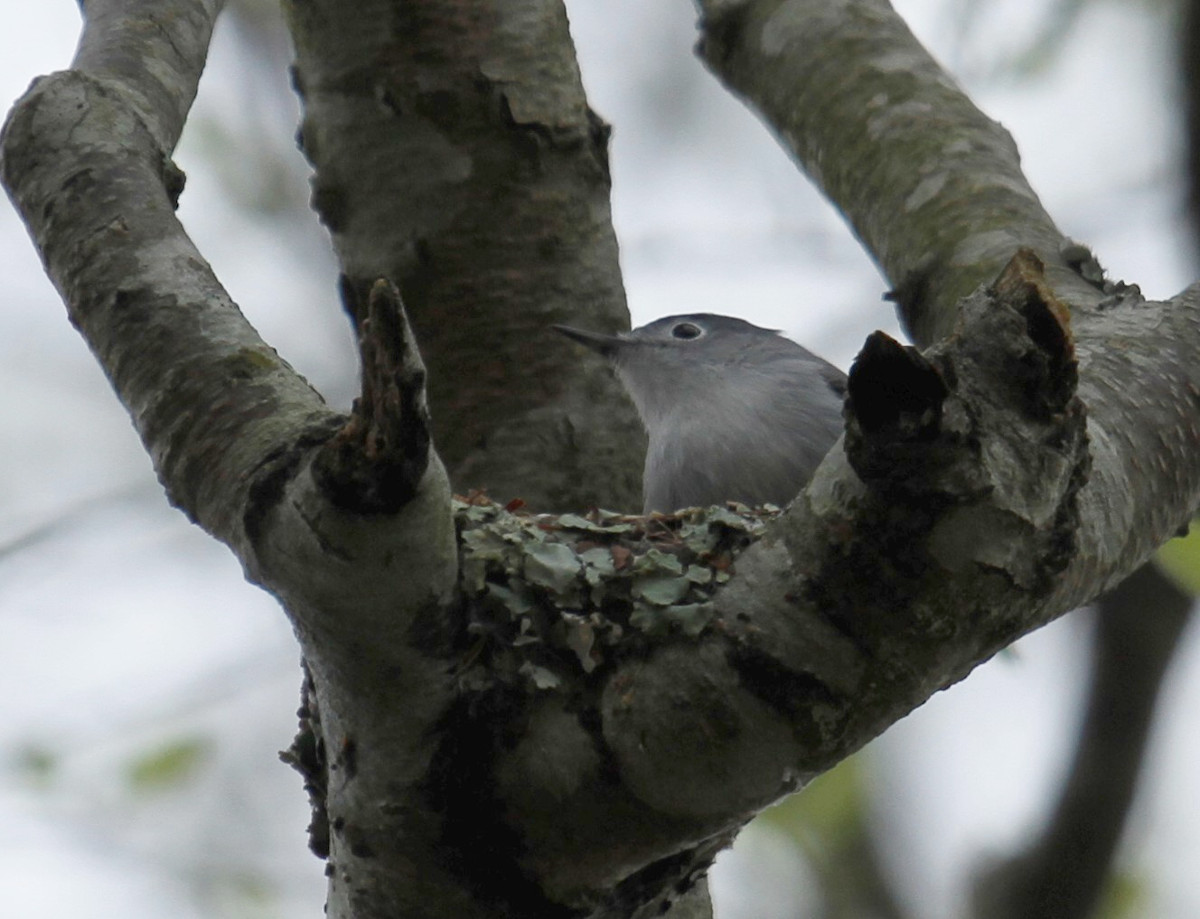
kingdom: Animalia
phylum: Chordata
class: Aves
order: Passeriformes
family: Polioptilidae
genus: Polioptila
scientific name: Polioptila caerulea
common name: Blue-gray gnatcatcher
